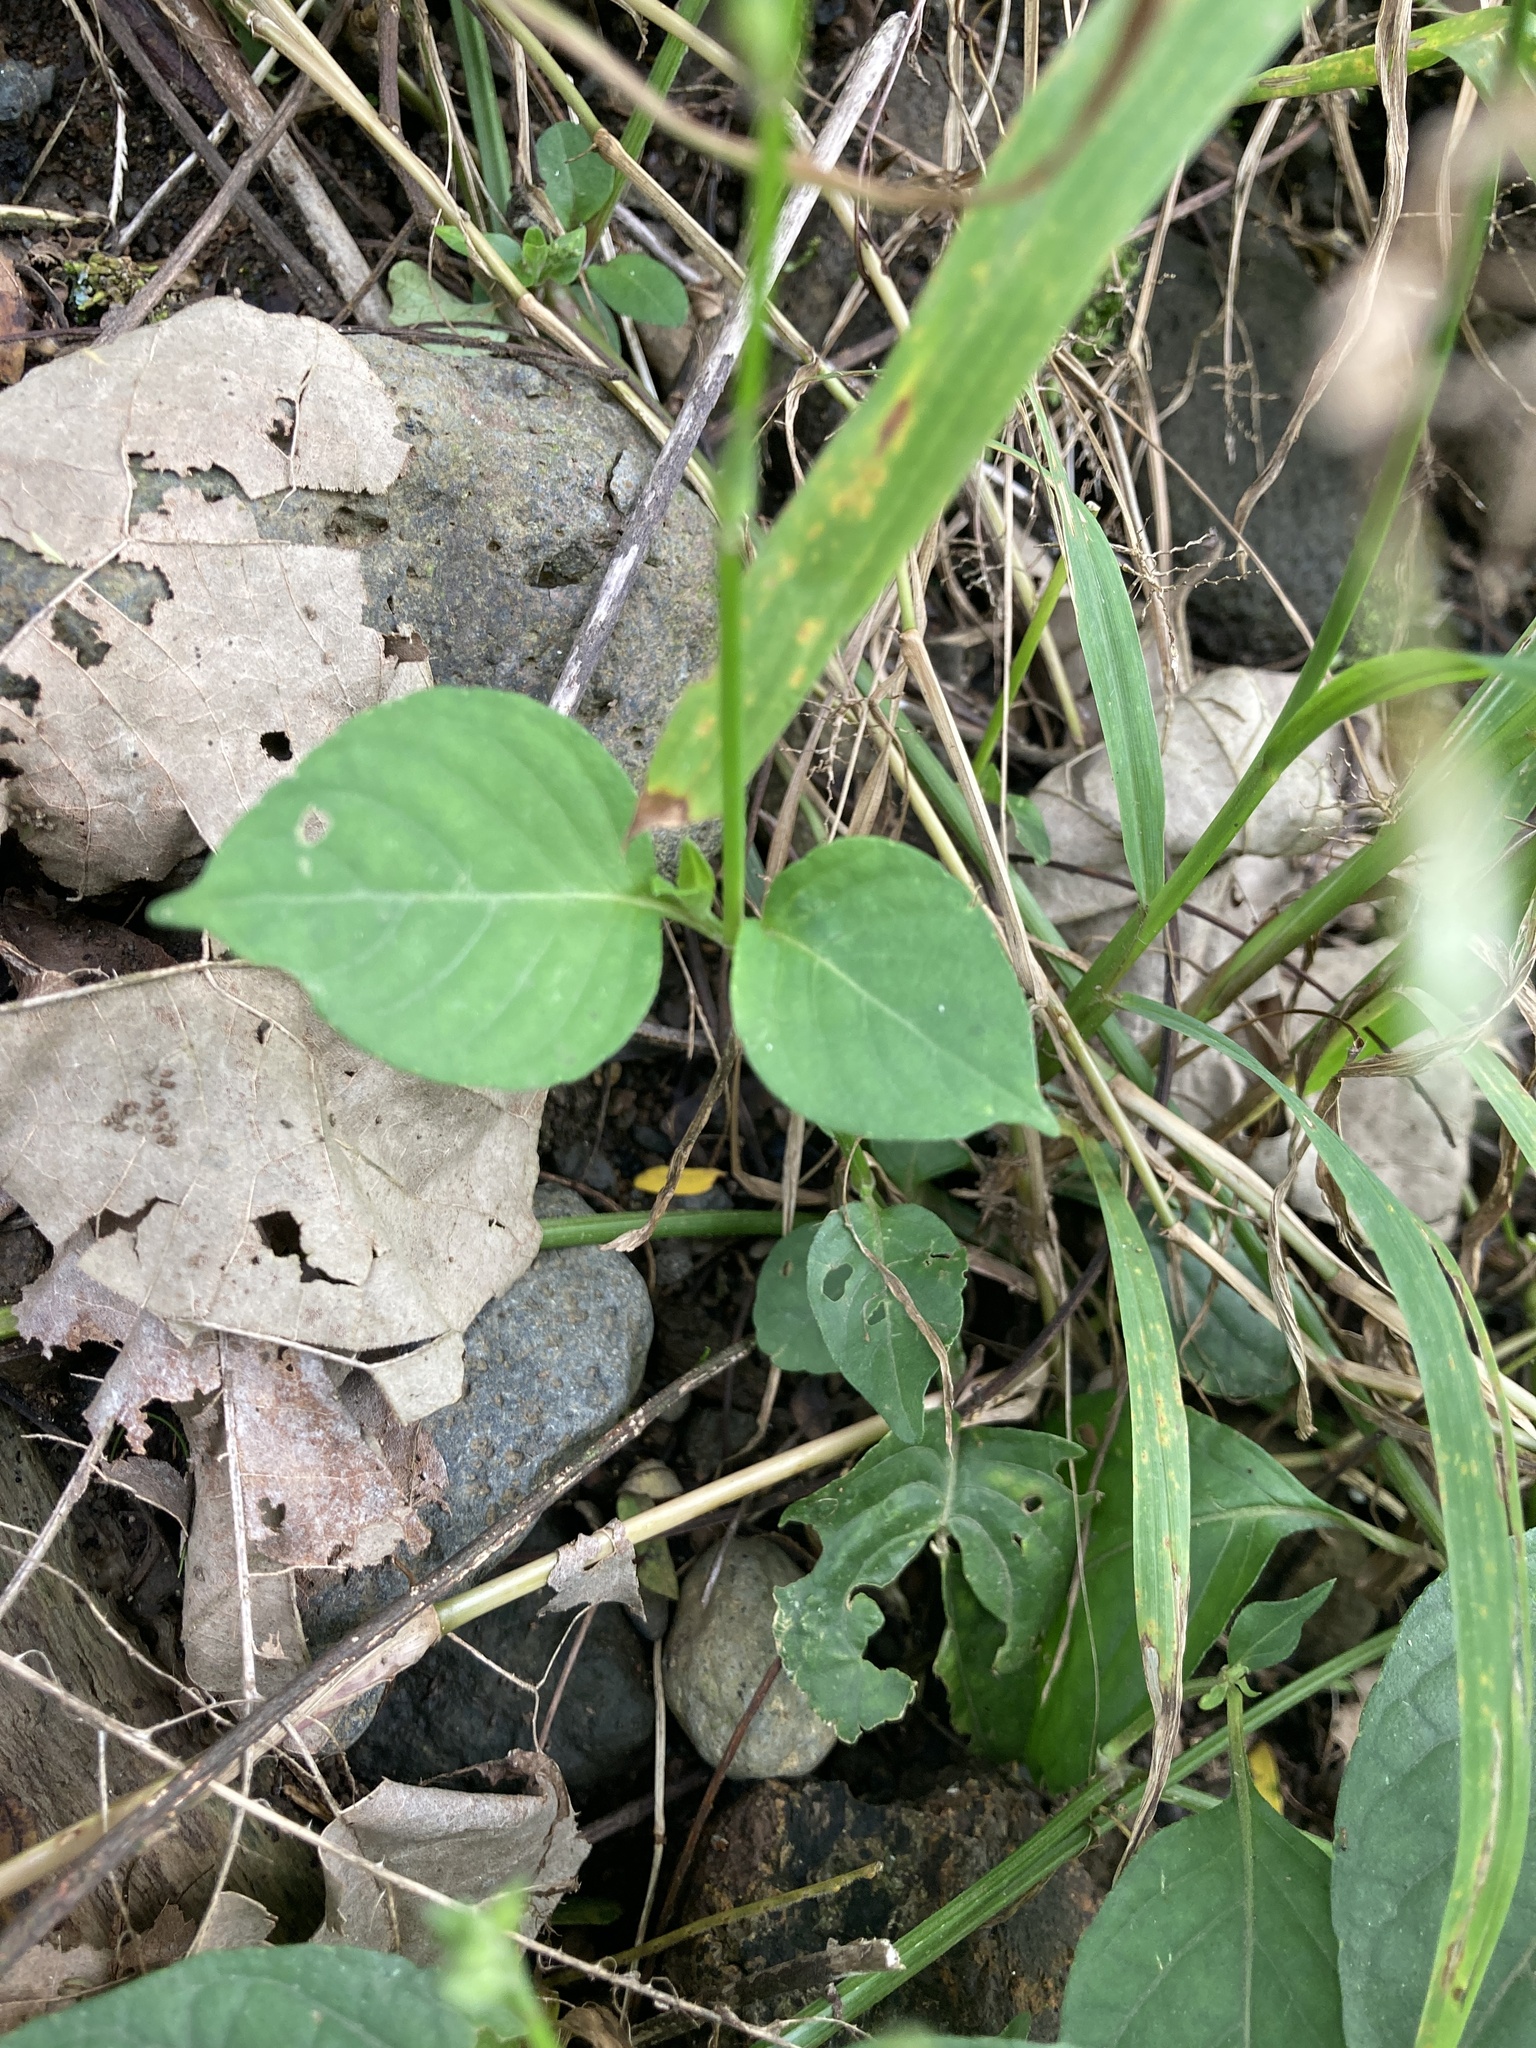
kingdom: Plantae
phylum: Tracheophyta
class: Magnoliopsida
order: Lamiales
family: Acanthaceae
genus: Asystasia
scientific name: Asystasia intrusa
